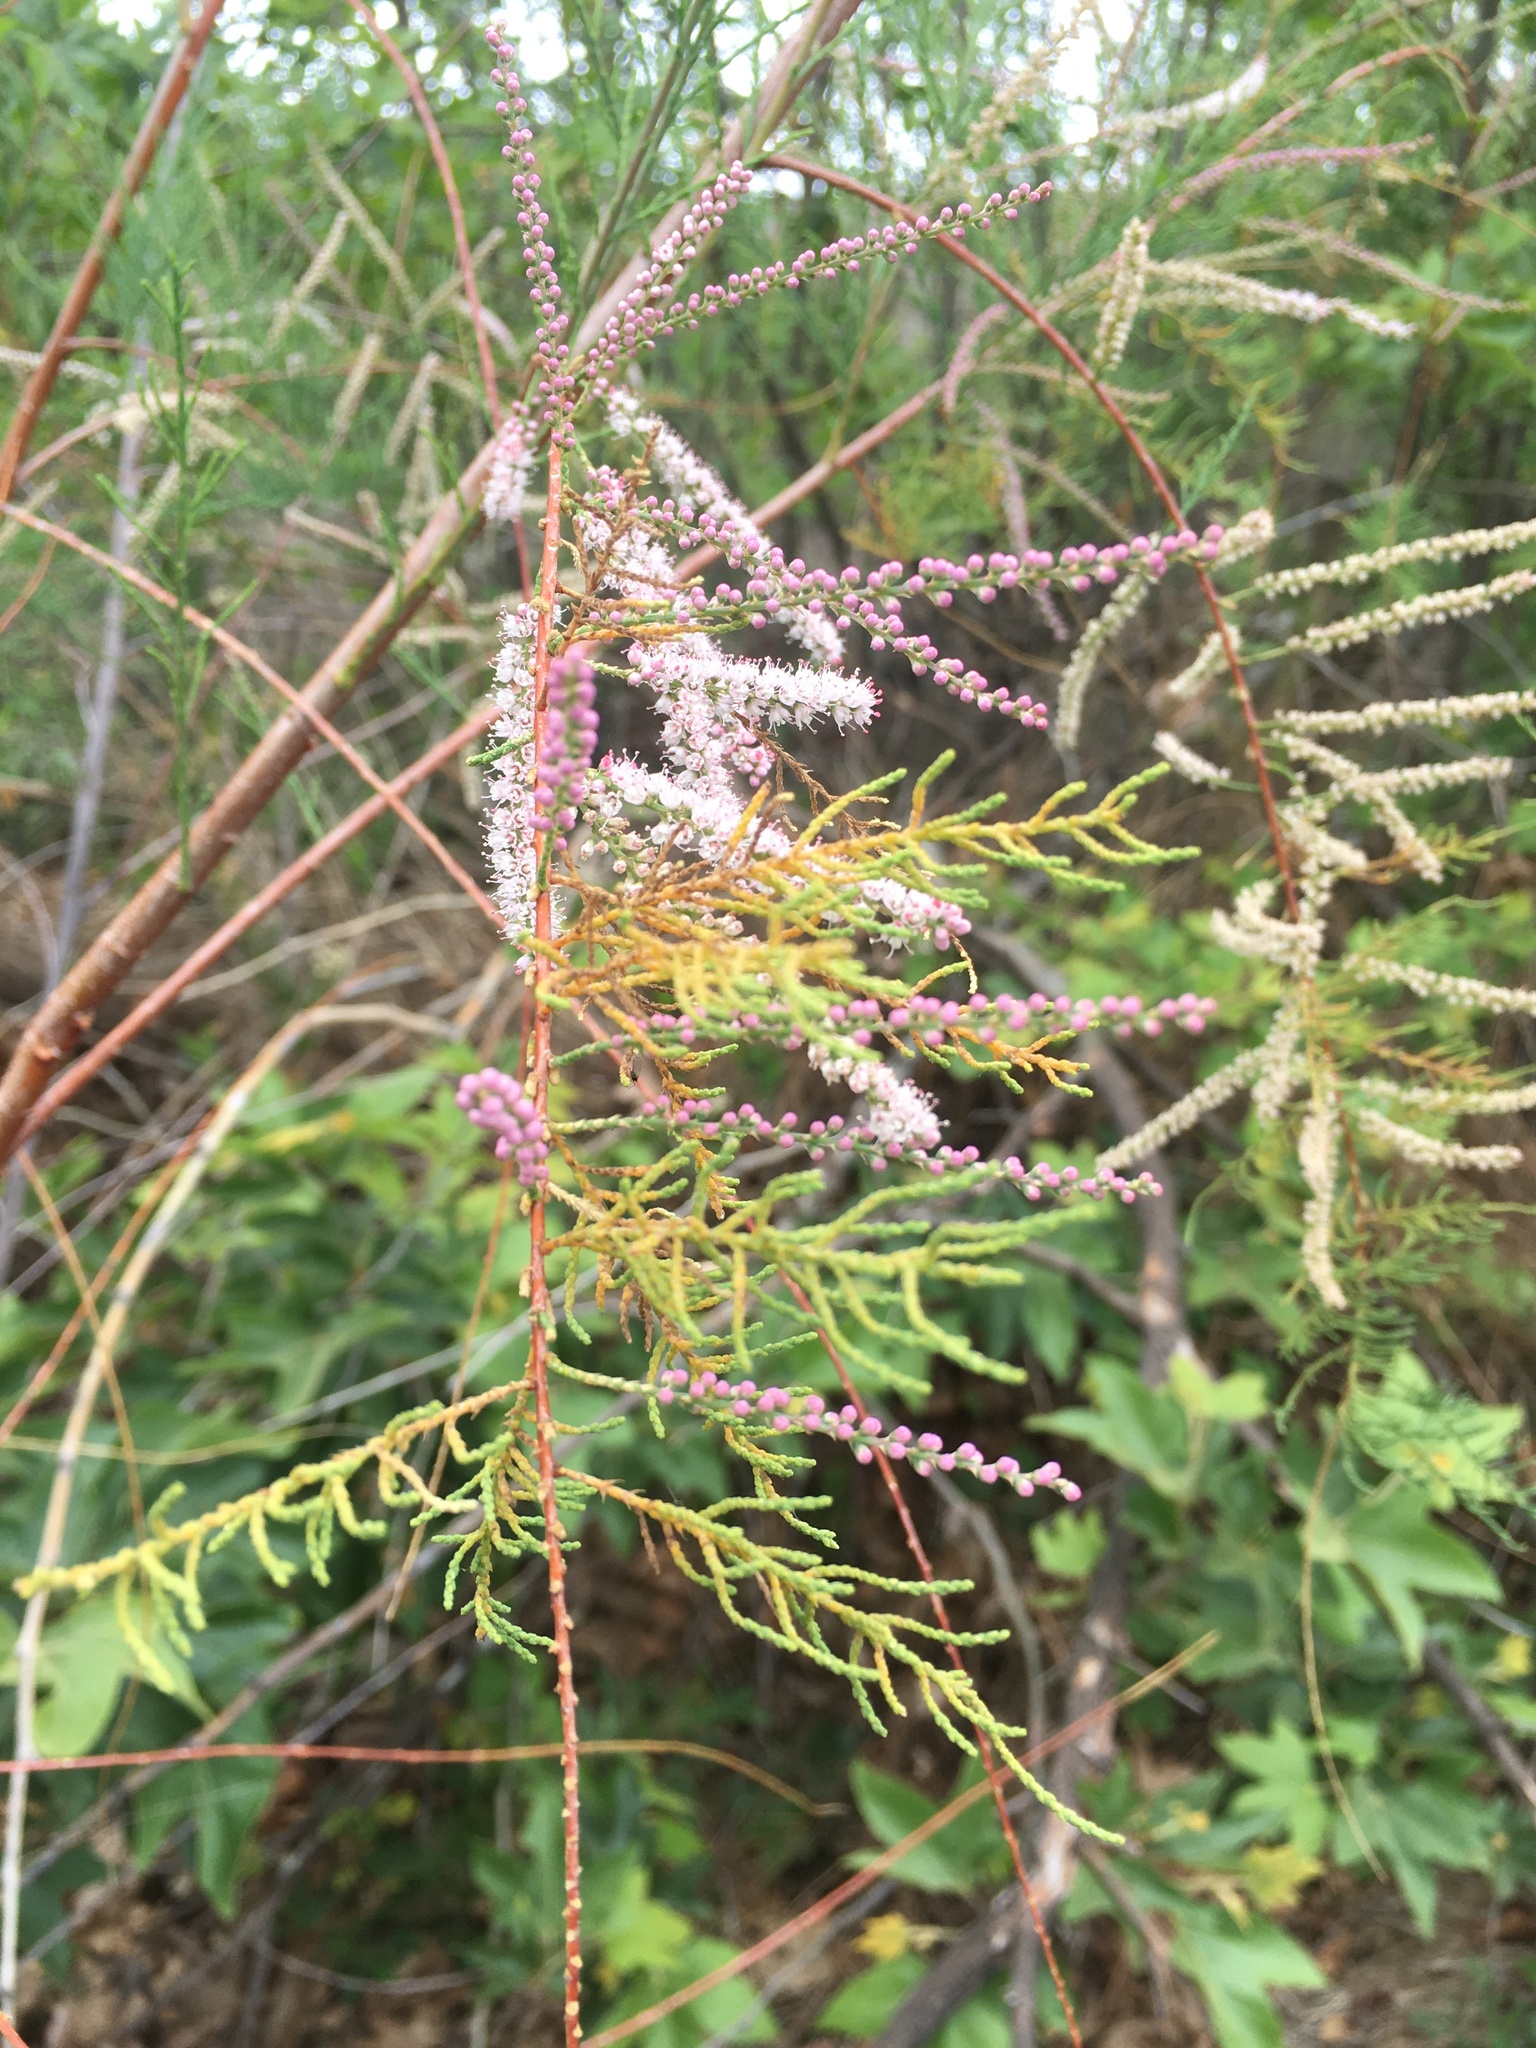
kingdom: Plantae
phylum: Tracheophyta
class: Magnoliopsida
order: Caryophyllales
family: Tamaricaceae
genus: Tamarix
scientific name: Tamarix ramosissima
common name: Pink tamarisk
